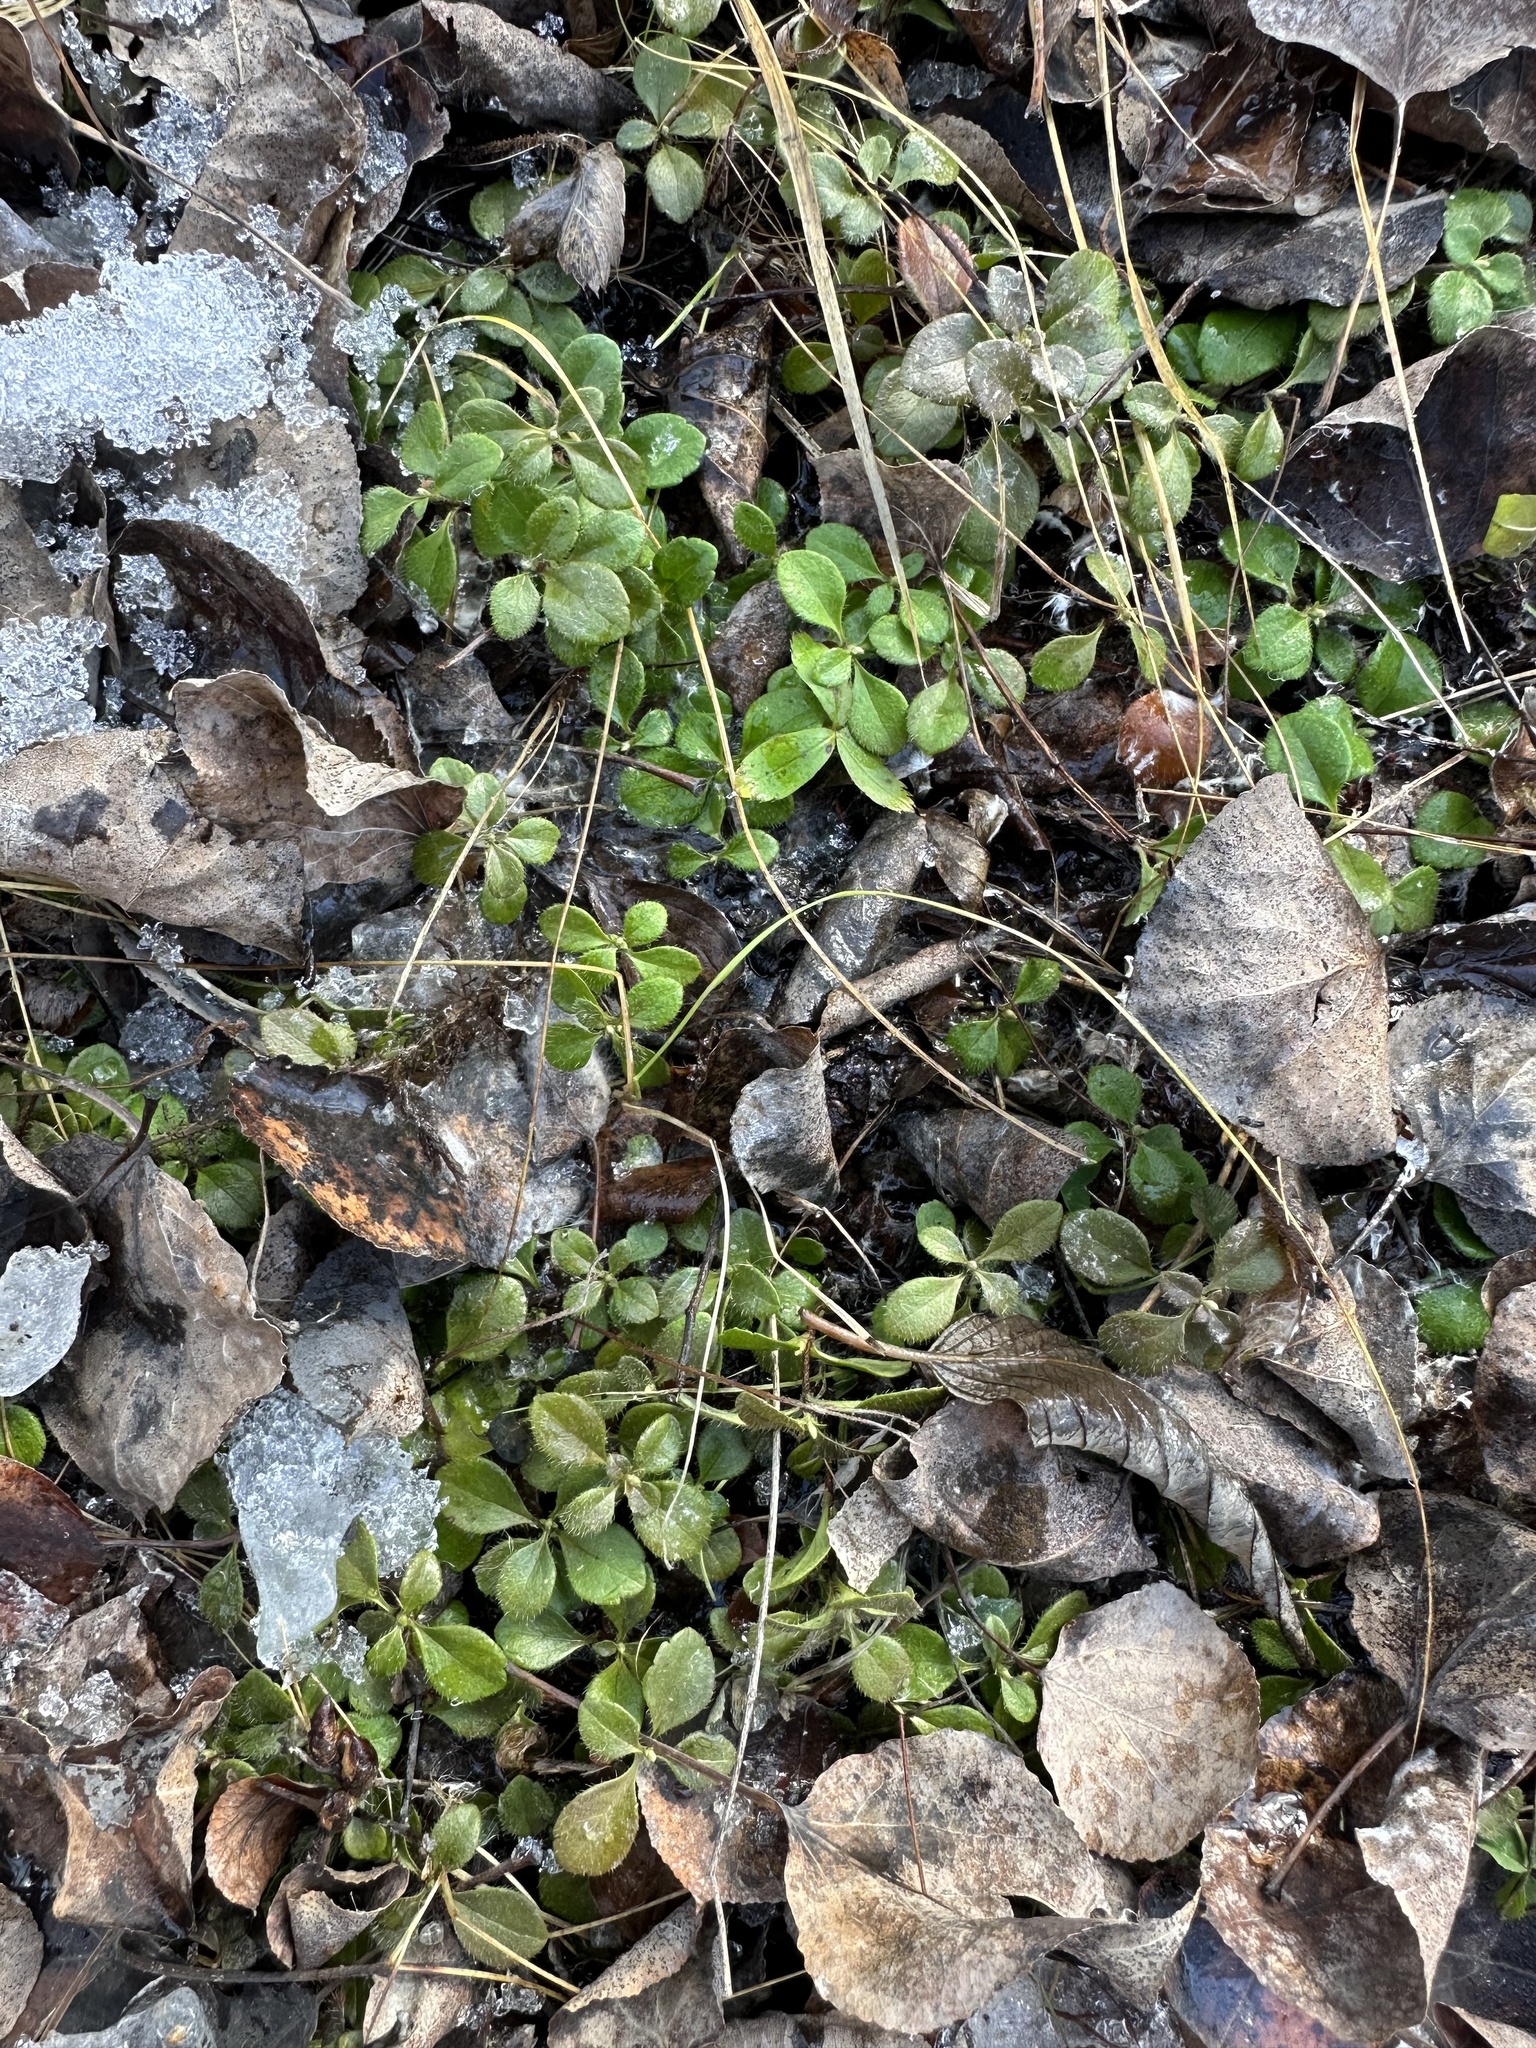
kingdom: Plantae
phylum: Tracheophyta
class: Magnoliopsida
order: Dipsacales
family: Caprifoliaceae
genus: Linnaea
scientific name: Linnaea borealis
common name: Twinflower
